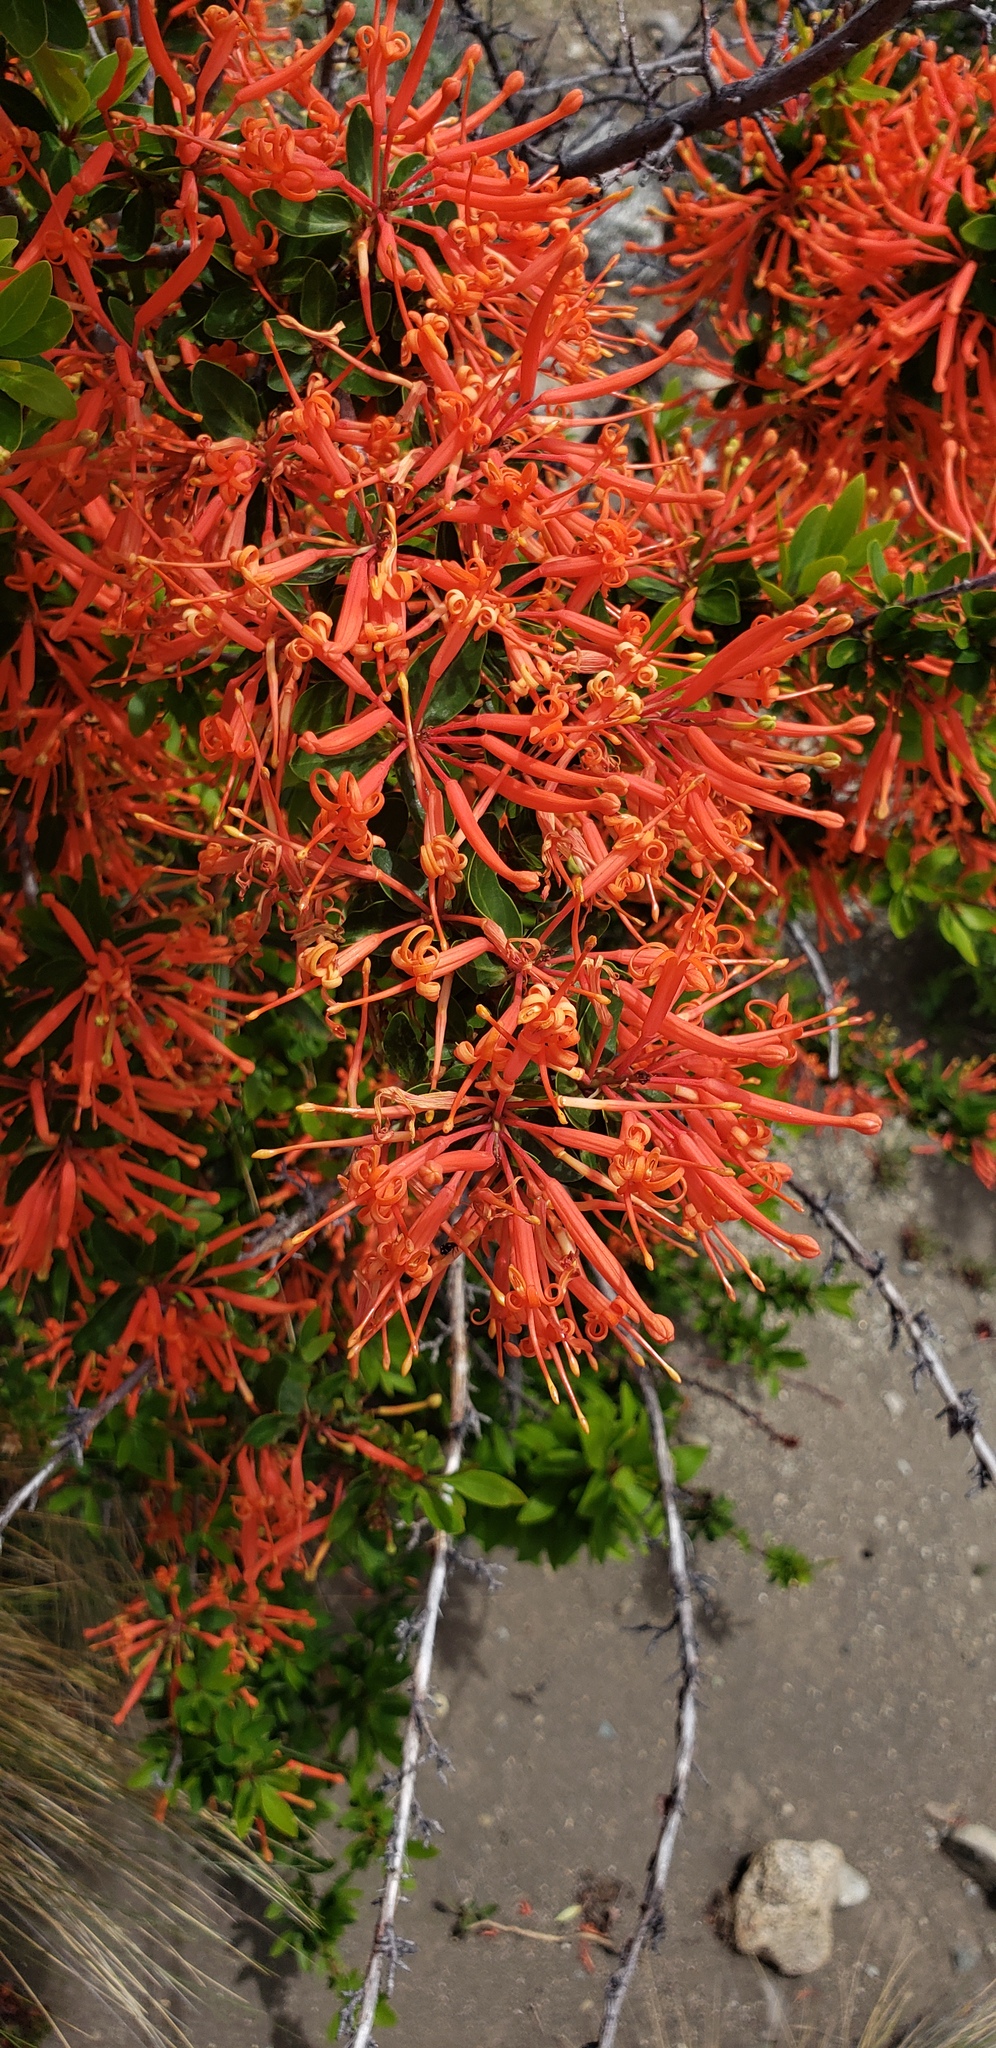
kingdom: Plantae
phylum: Tracheophyta
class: Magnoliopsida
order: Proteales
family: Proteaceae
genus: Embothrium
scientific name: Embothrium coccineum
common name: Chilean firebush
